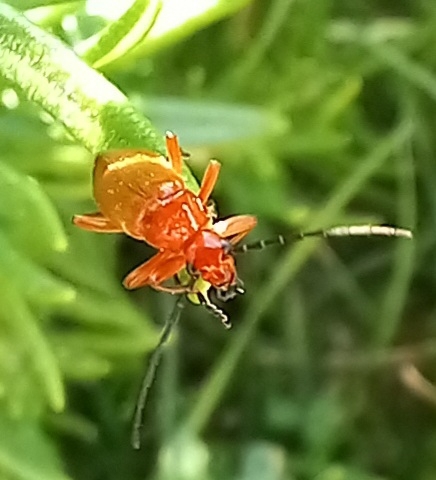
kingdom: Animalia
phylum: Arthropoda
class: Insecta
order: Coleoptera
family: Cantharidae
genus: Rhagonycha
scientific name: Rhagonycha fulva
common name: Common red soldier beetle
